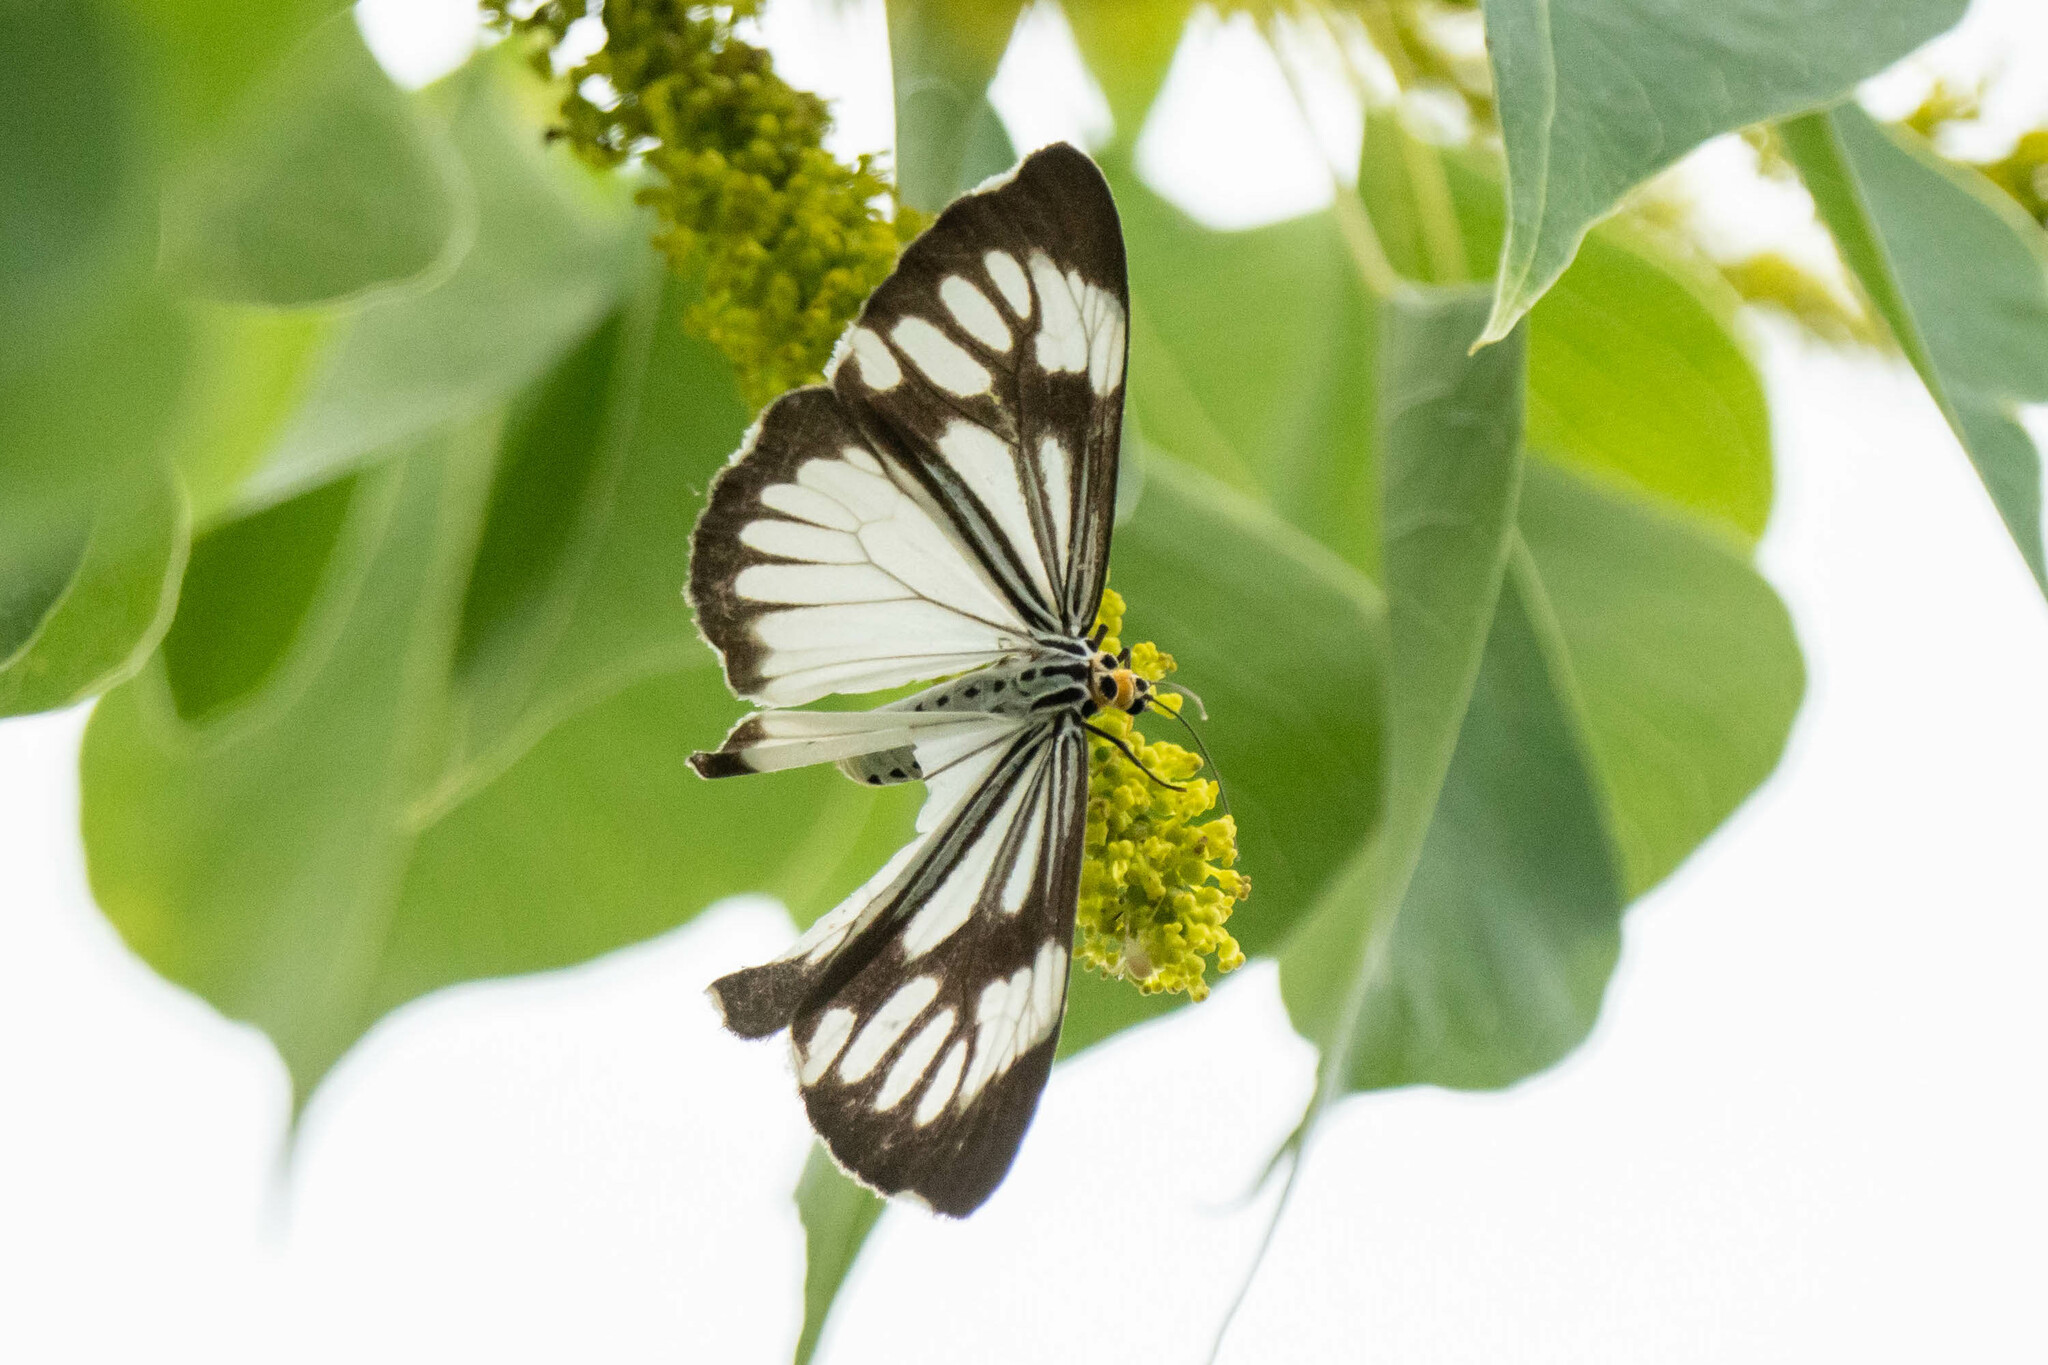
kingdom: Animalia
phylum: Arthropoda
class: Insecta
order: Lepidoptera
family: Erebidae
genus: Nyctemera
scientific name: Nyctemera coleta
